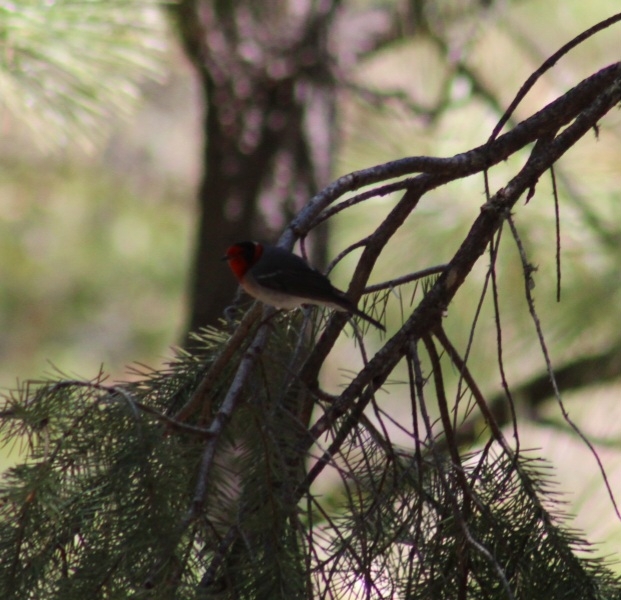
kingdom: Animalia
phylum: Chordata
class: Aves
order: Passeriformes
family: Parulidae
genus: Cardellina
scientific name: Cardellina rubrifrons
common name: Red-faced warbler
